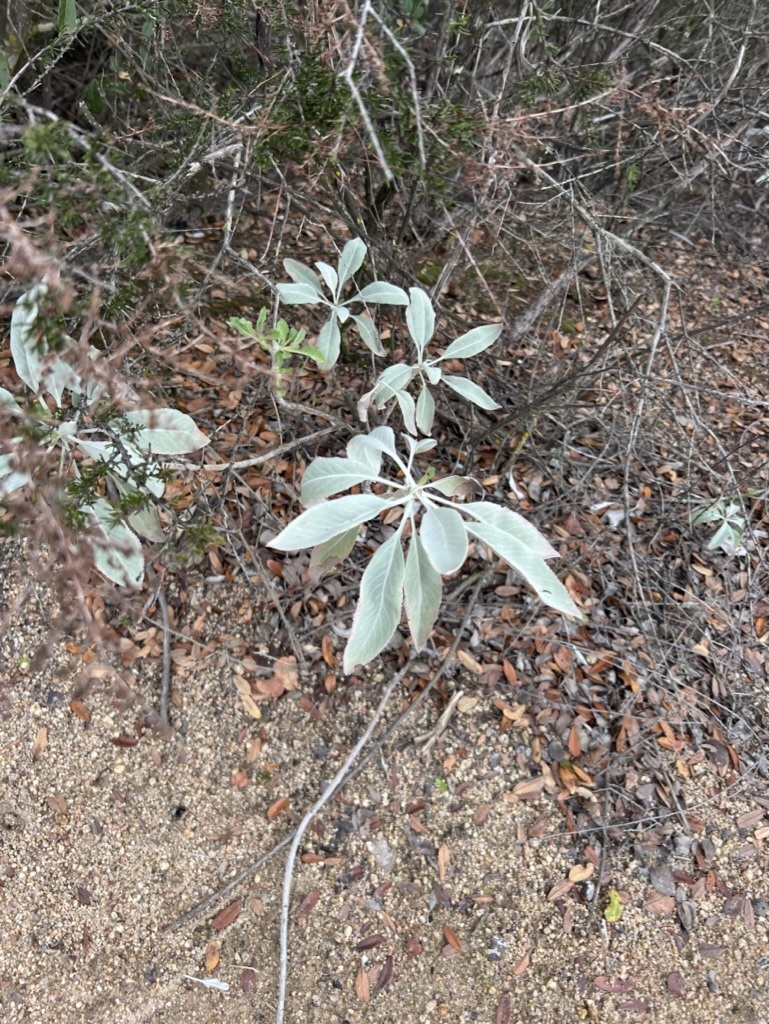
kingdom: Plantae
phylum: Tracheophyta
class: Magnoliopsida
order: Lamiales
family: Lamiaceae
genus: Salvia
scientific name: Salvia apiana
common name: White sage
